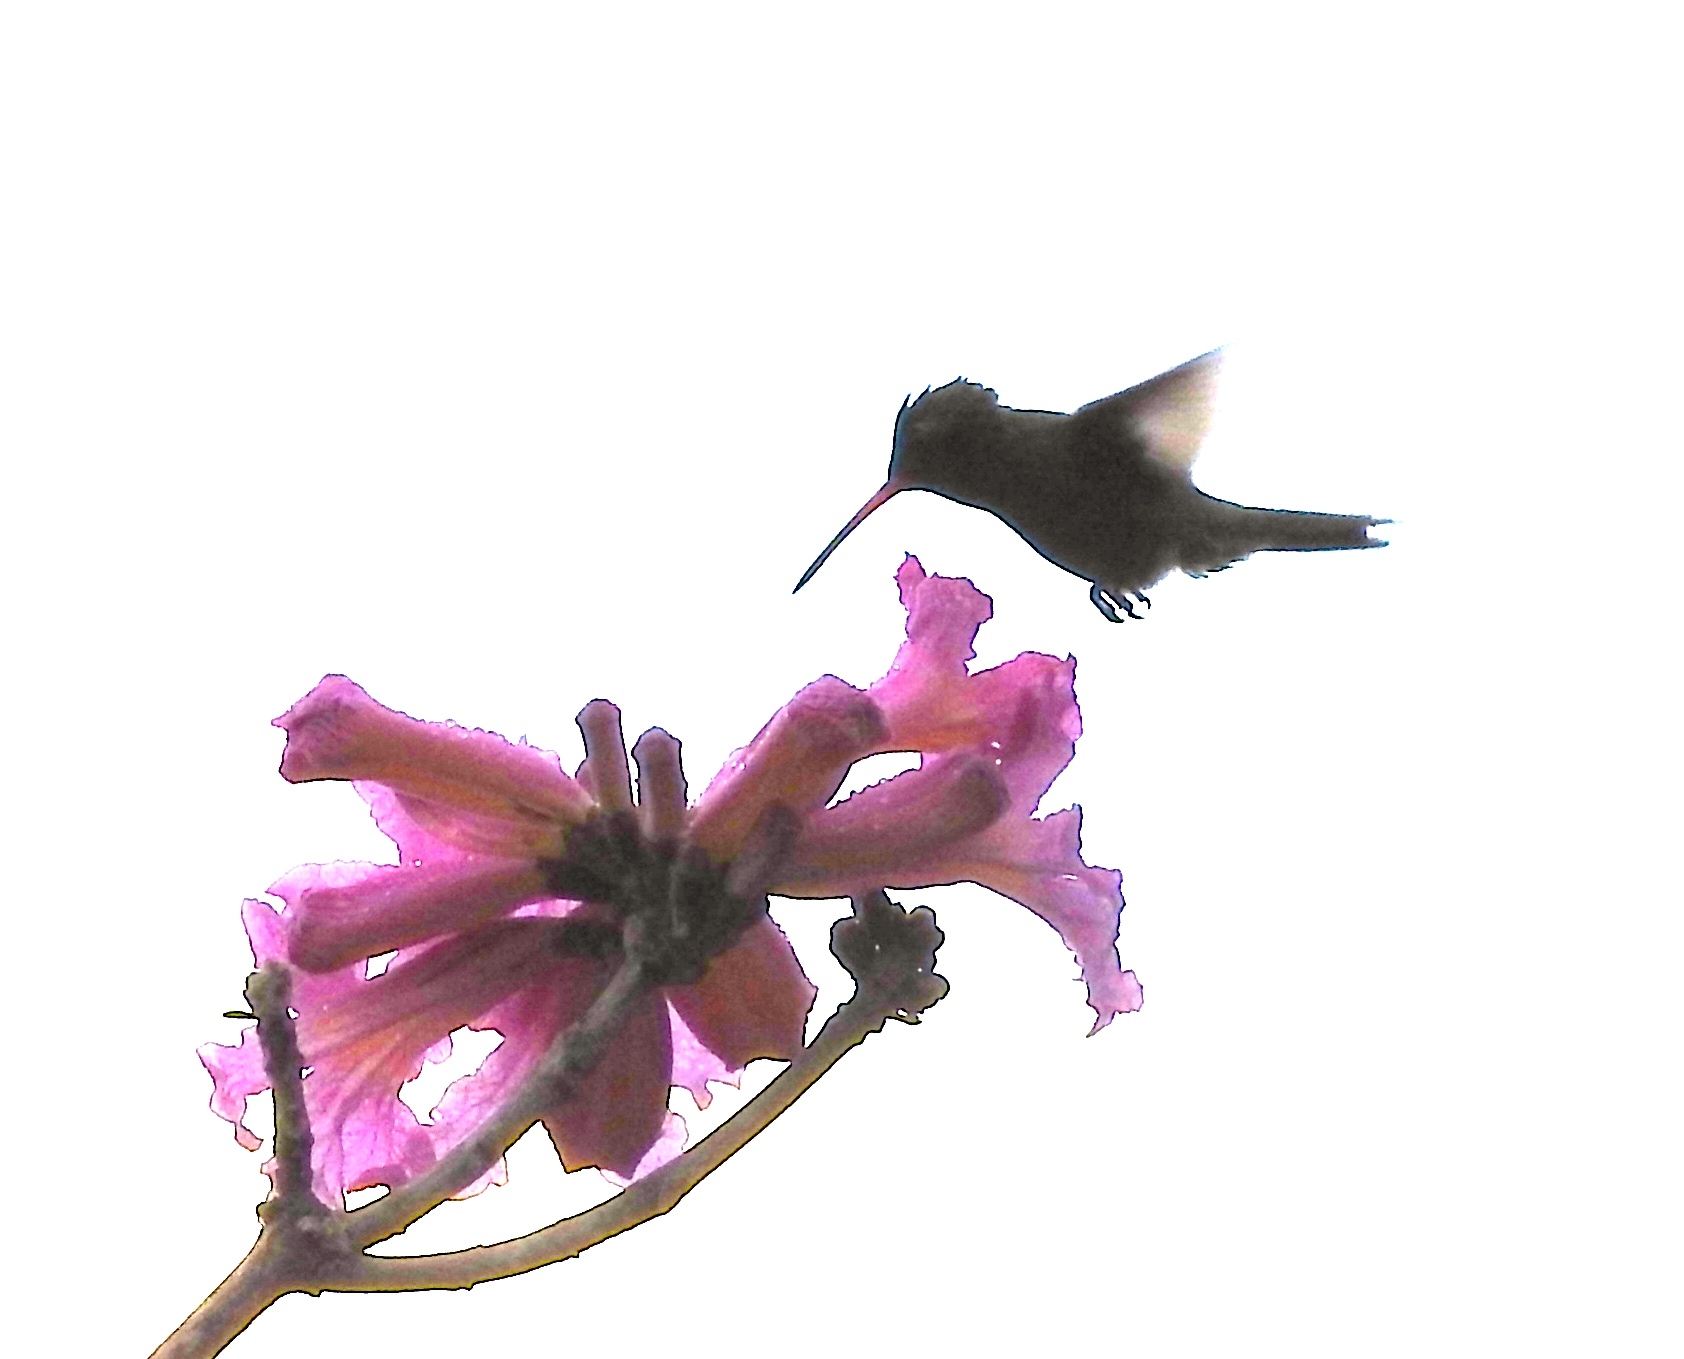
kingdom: Animalia
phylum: Chordata
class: Aves
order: Apodiformes
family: Trochilidae
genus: Cynanthus
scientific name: Cynanthus latirostris
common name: Broad-billed hummingbird
